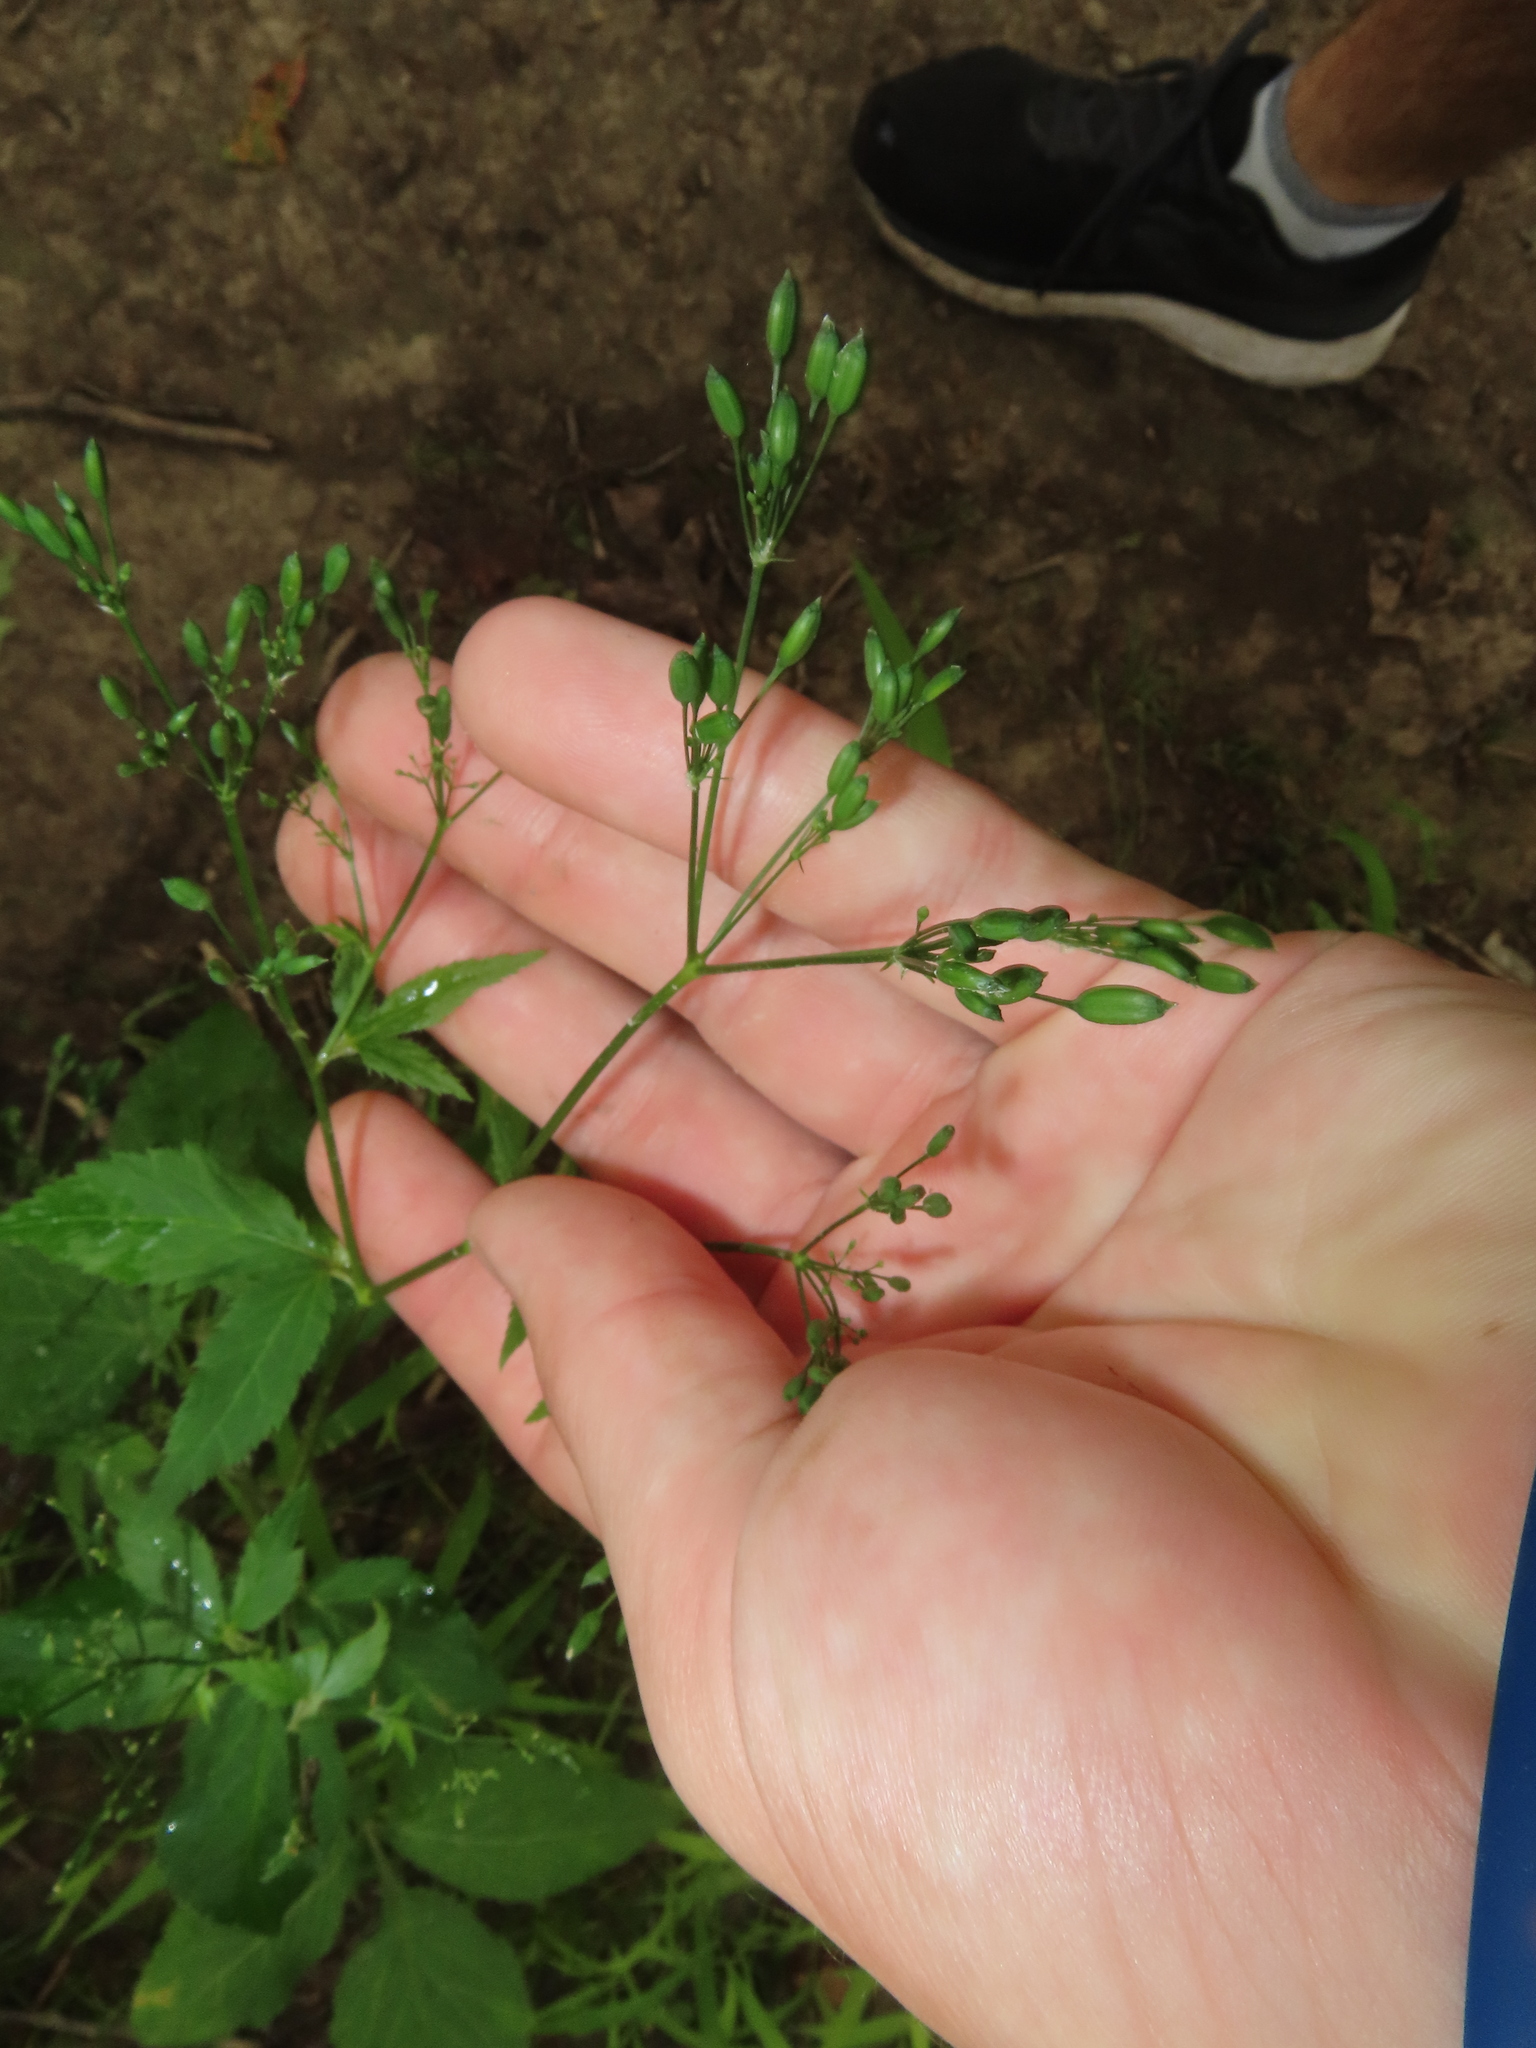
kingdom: Plantae
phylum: Tracheophyta
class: Magnoliopsida
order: Apiales
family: Apiaceae
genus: Cryptotaenia
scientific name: Cryptotaenia canadensis
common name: Honewort
